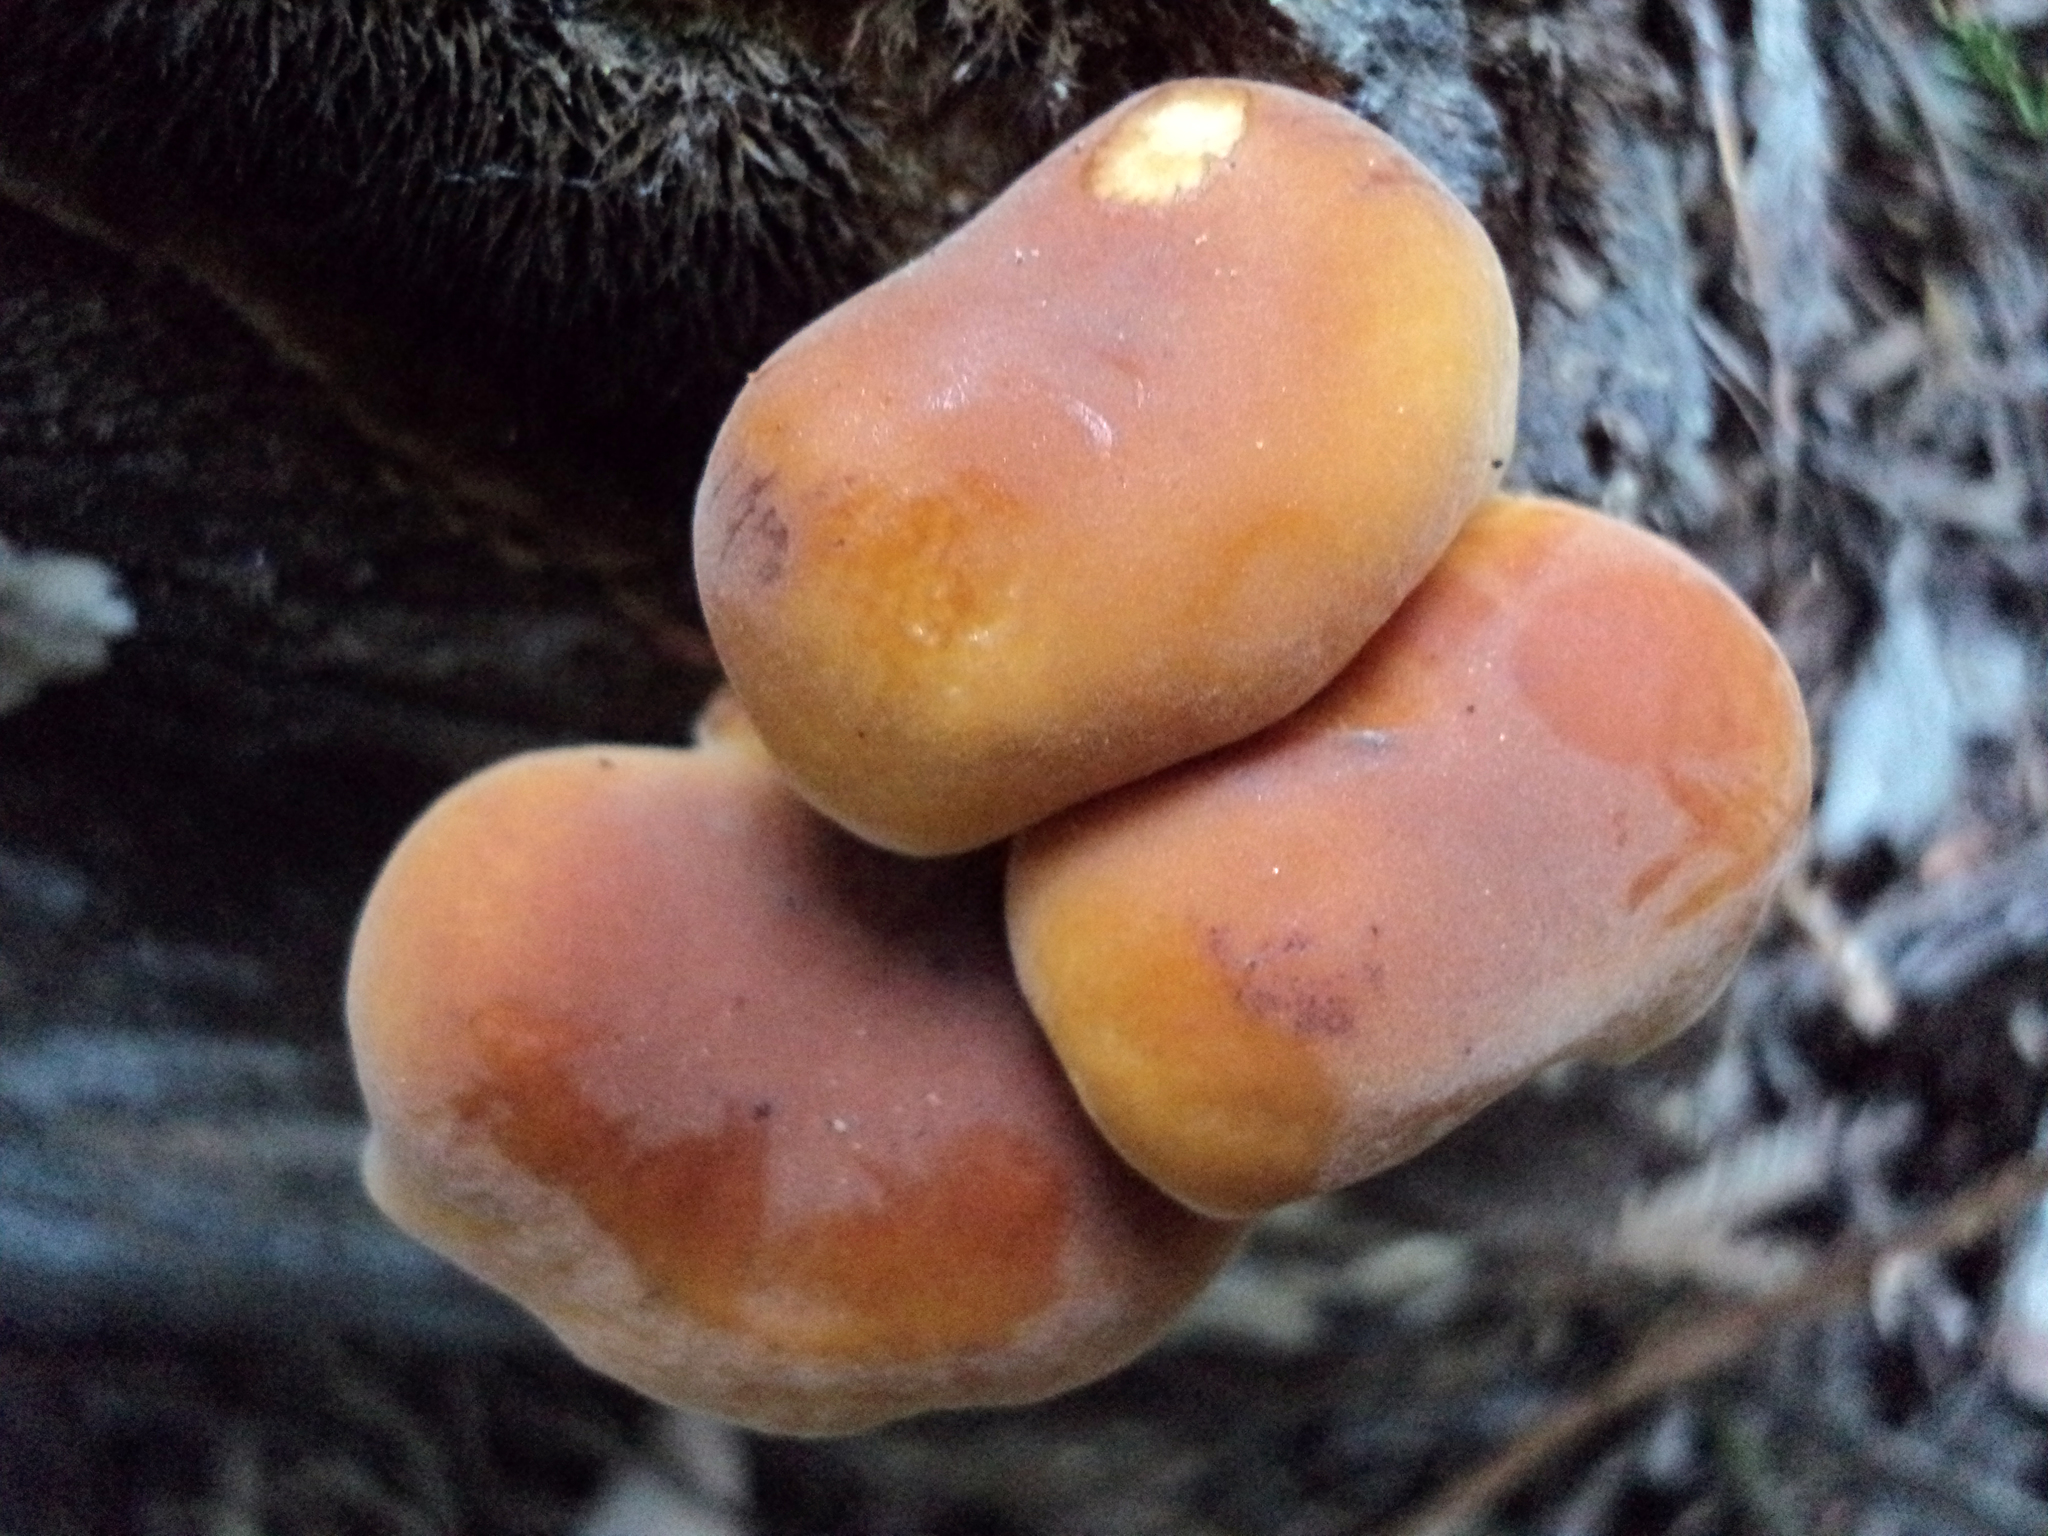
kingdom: Fungi
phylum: Basidiomycota
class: Agaricomycetes
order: Agaricales
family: Physalacriaceae
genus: Flammulina
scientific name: Flammulina velutipes
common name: Velvet shank
